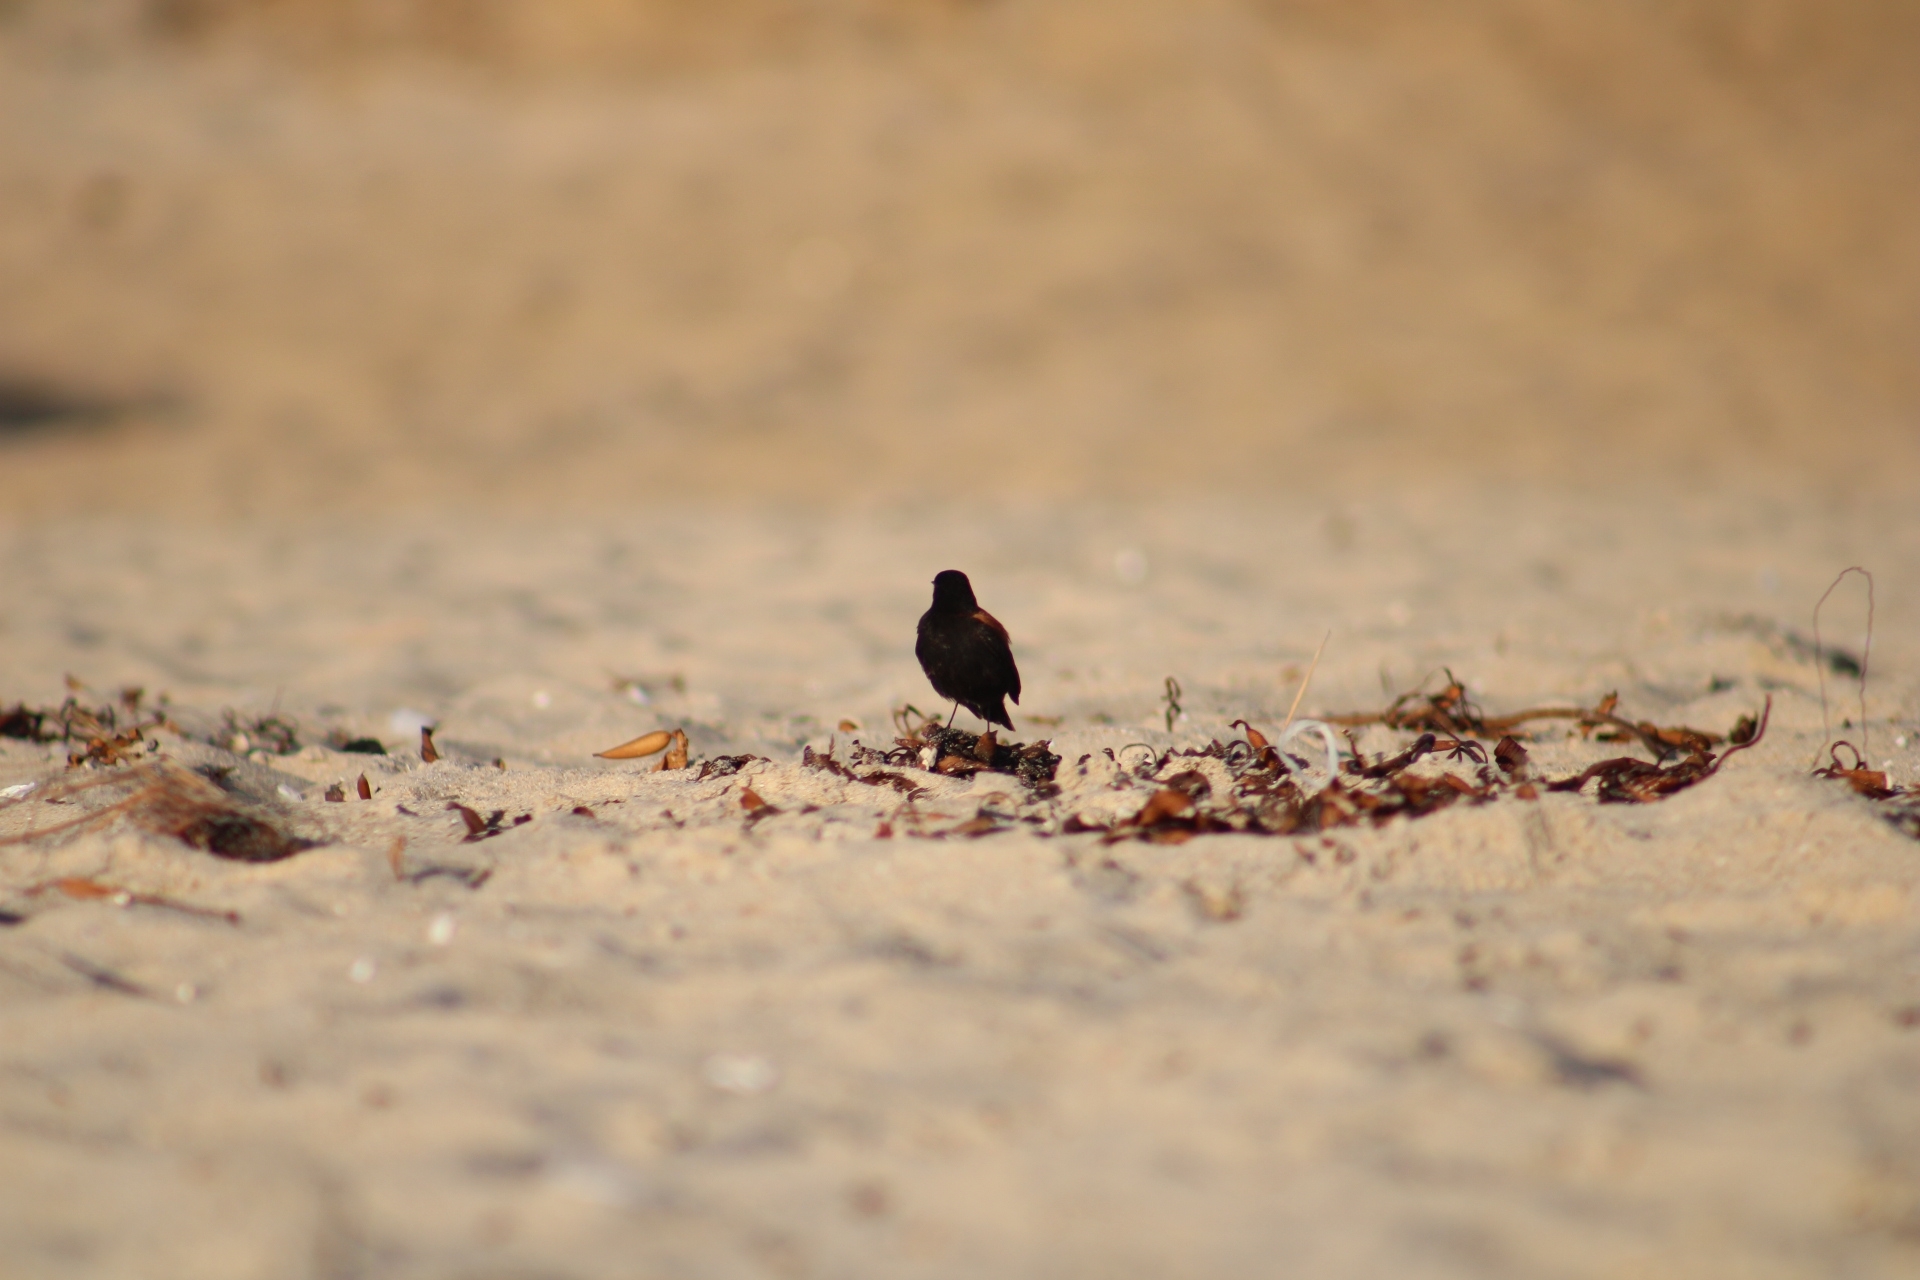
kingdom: Animalia
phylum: Chordata
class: Aves
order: Passeriformes
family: Tyrannidae
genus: Lessonia
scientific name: Lessonia rufa
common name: Austral negrito
